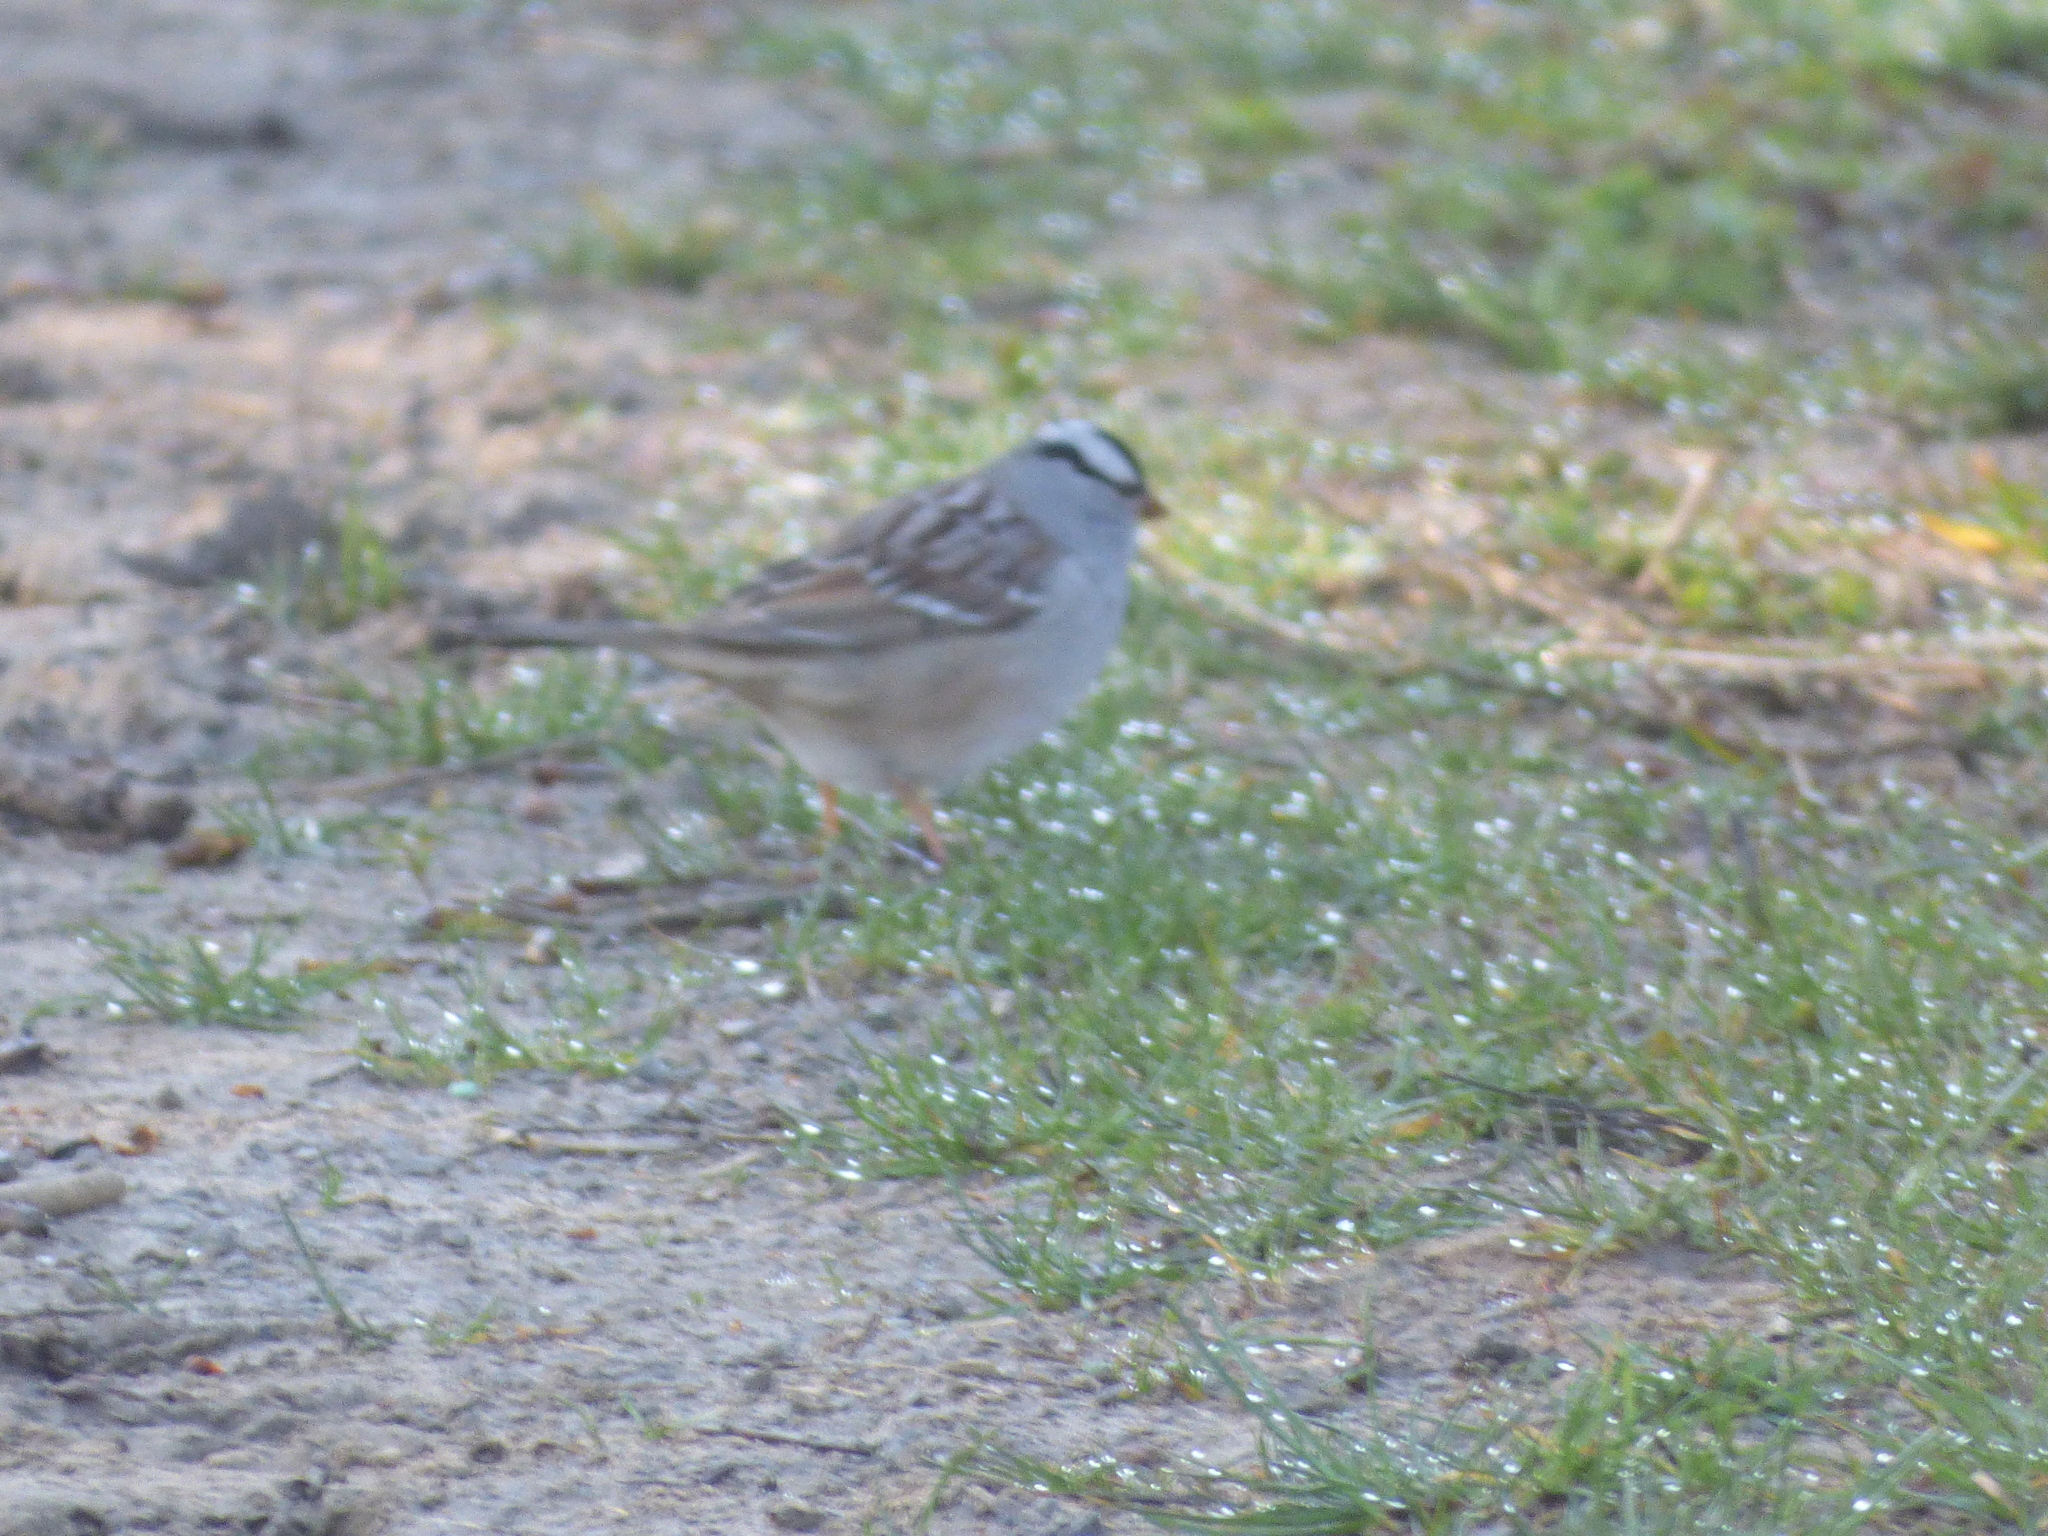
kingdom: Animalia
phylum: Chordata
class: Aves
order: Passeriformes
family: Passerellidae
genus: Zonotrichia
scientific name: Zonotrichia leucophrys
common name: White-crowned sparrow
